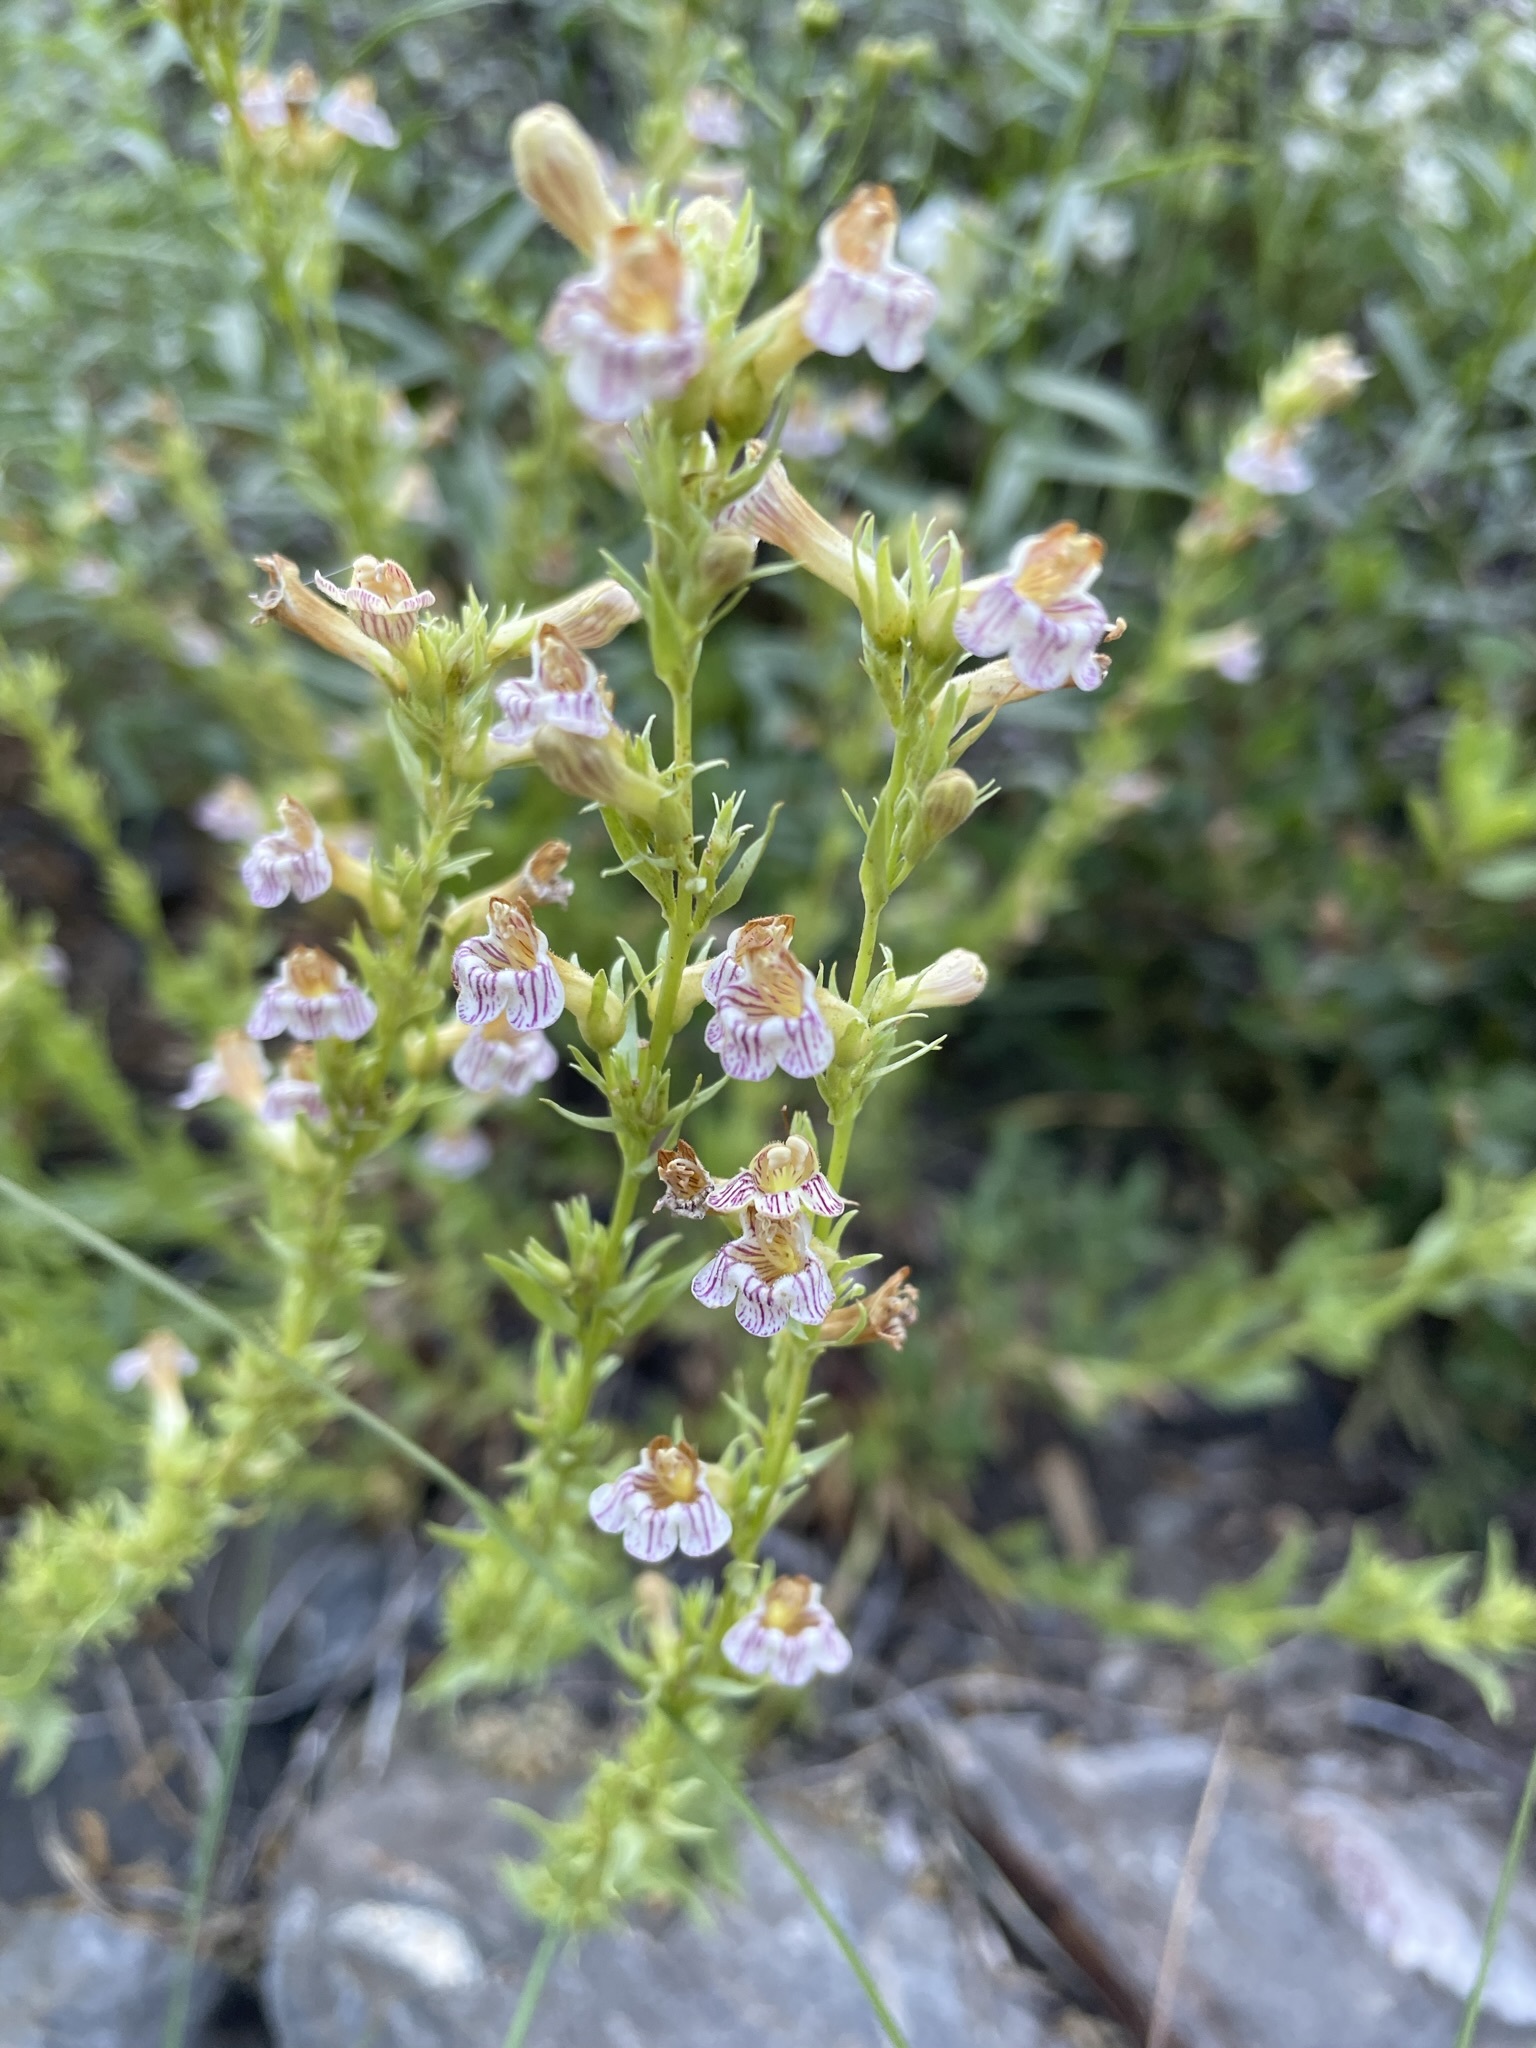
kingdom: Plantae
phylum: Tracheophyta
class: Magnoliopsida
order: Lamiales
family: Plantaginaceae
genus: Penstemon
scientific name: Penstemon deustus
